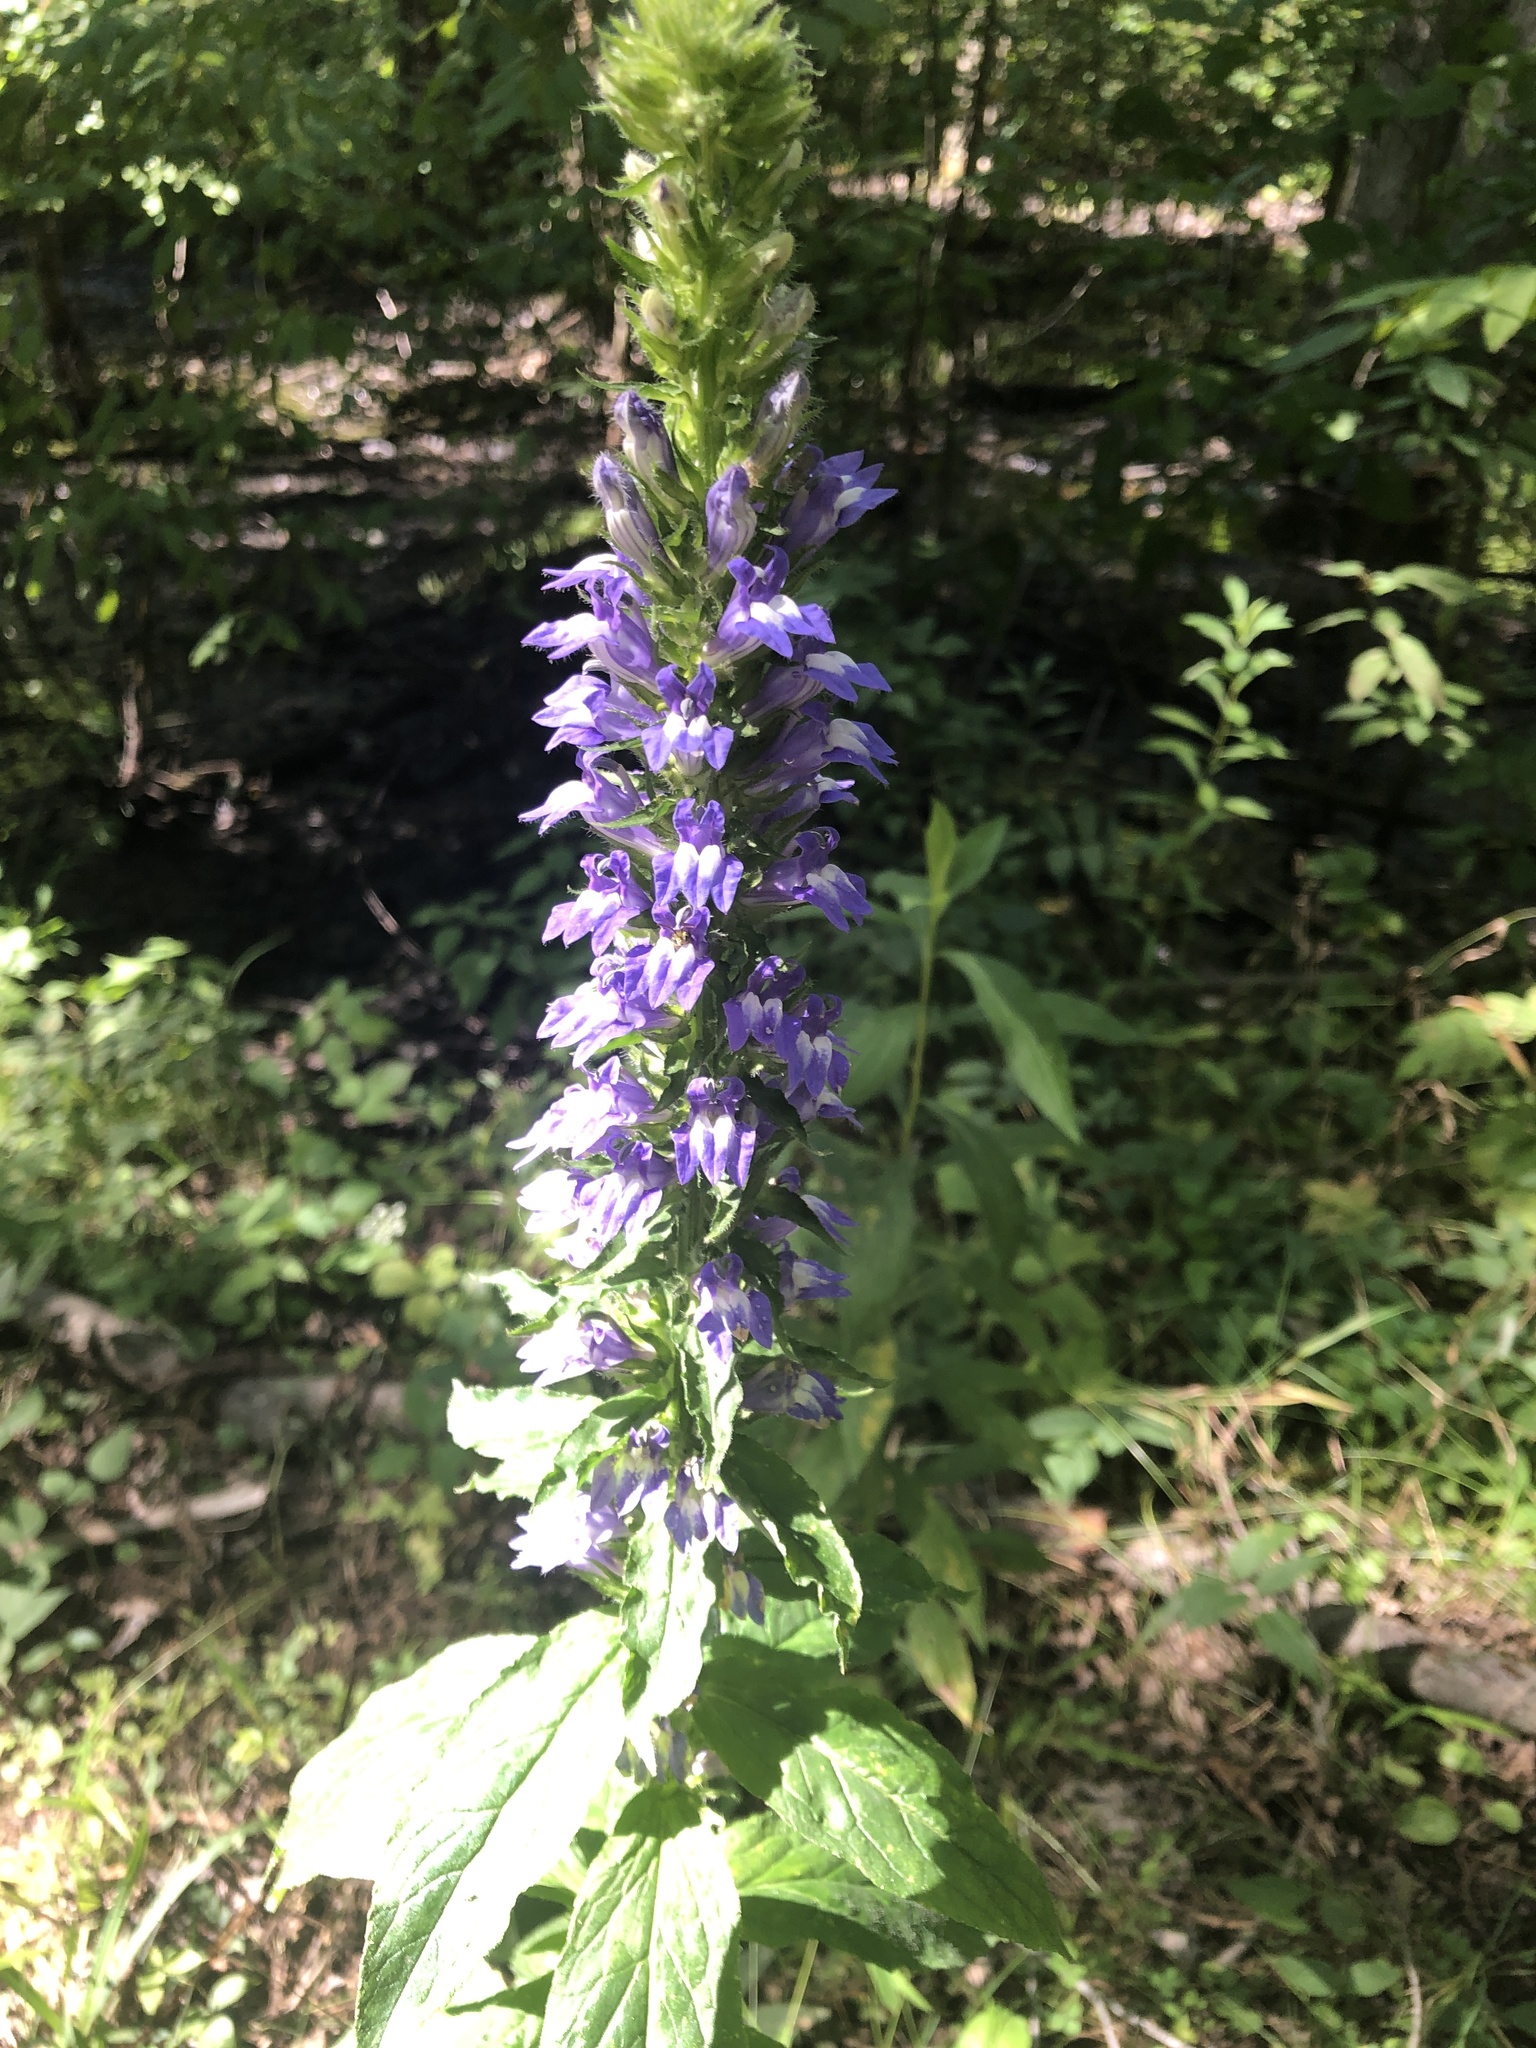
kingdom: Plantae
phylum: Tracheophyta
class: Magnoliopsida
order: Asterales
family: Campanulaceae
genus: Lobelia
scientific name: Lobelia siphilitica
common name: Great lobelia
